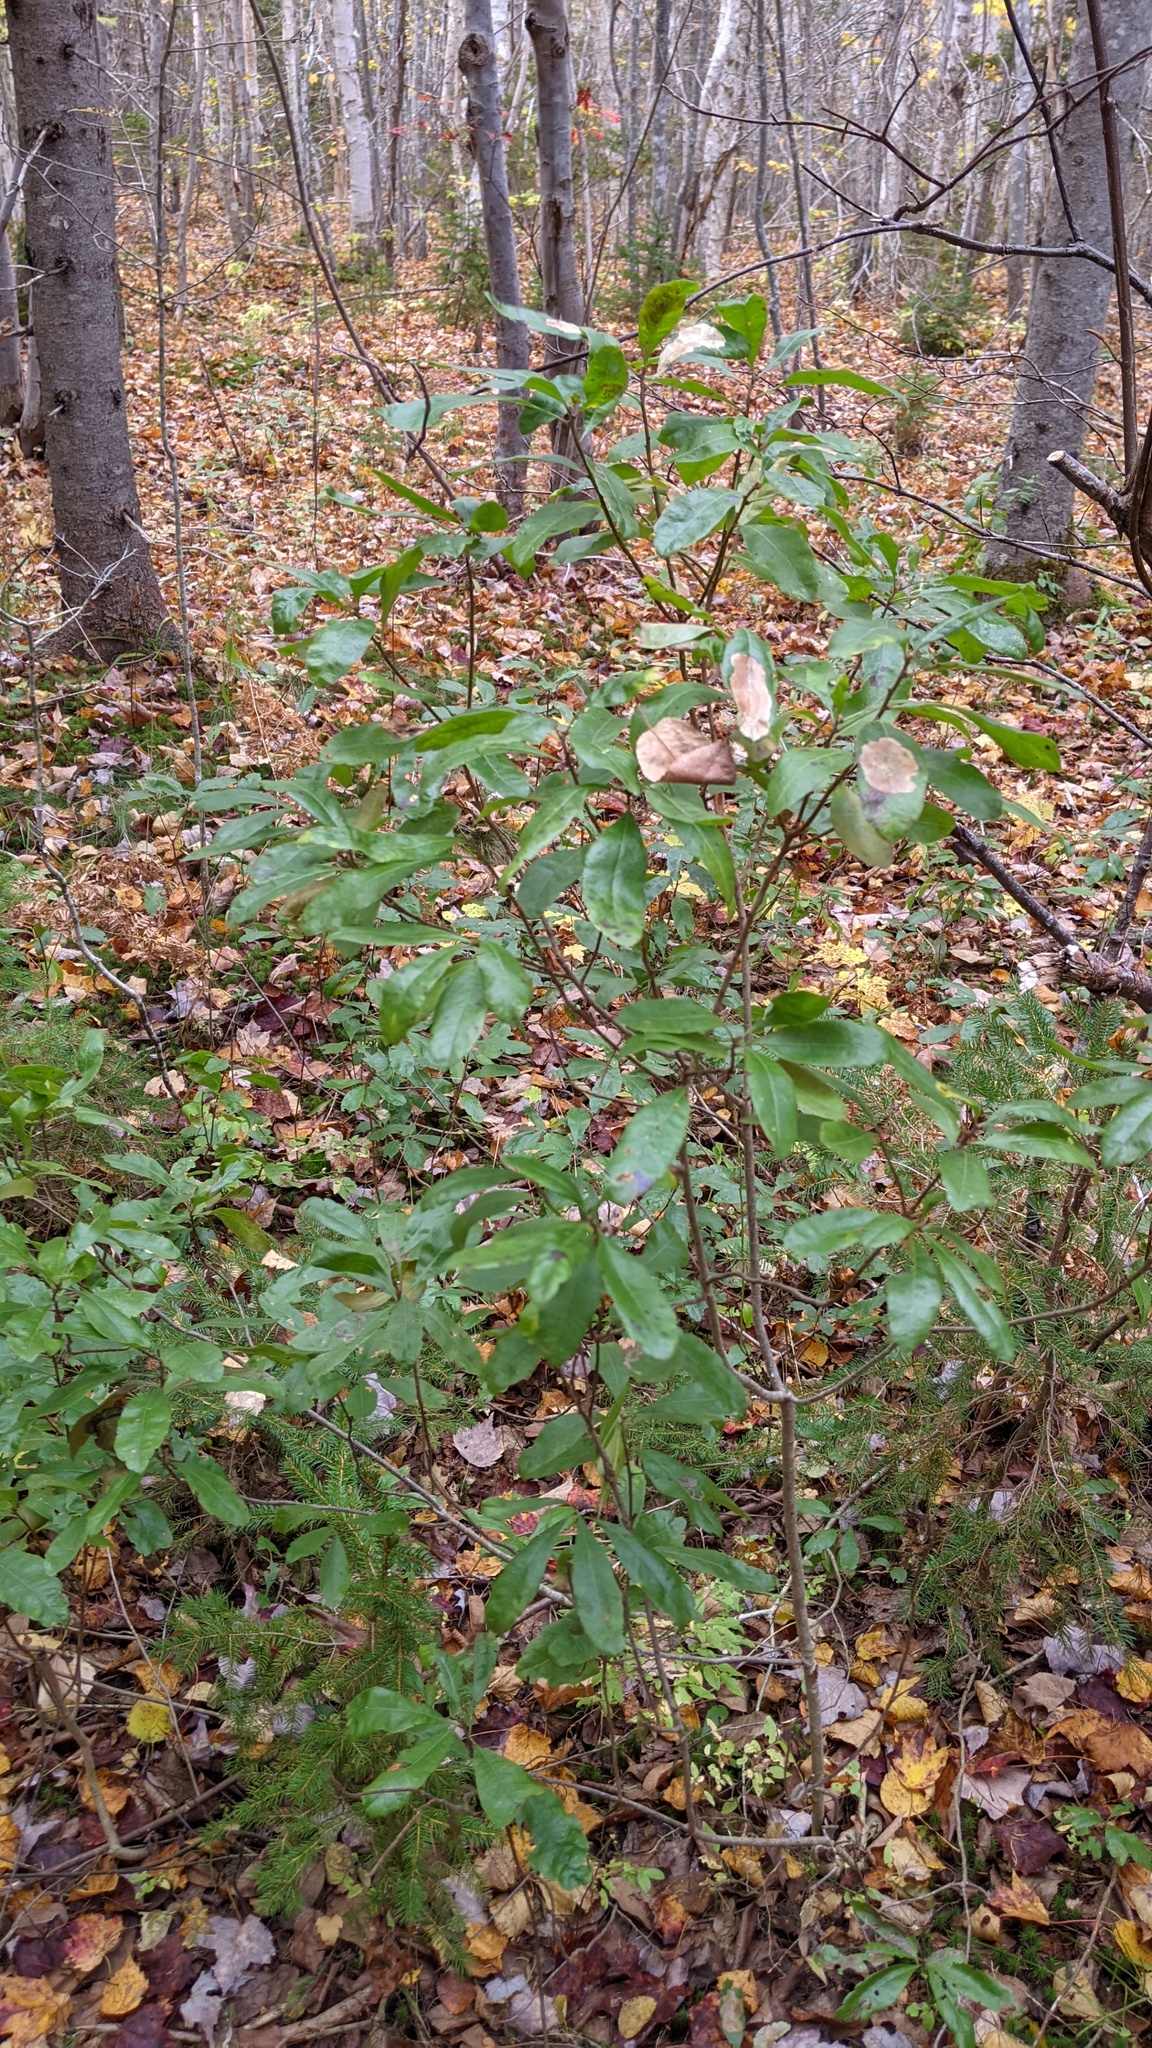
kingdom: Plantae
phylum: Tracheophyta
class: Magnoliopsida
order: Fagales
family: Myricaceae
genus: Morella
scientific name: Morella pensylvanica
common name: Northern bayberry
